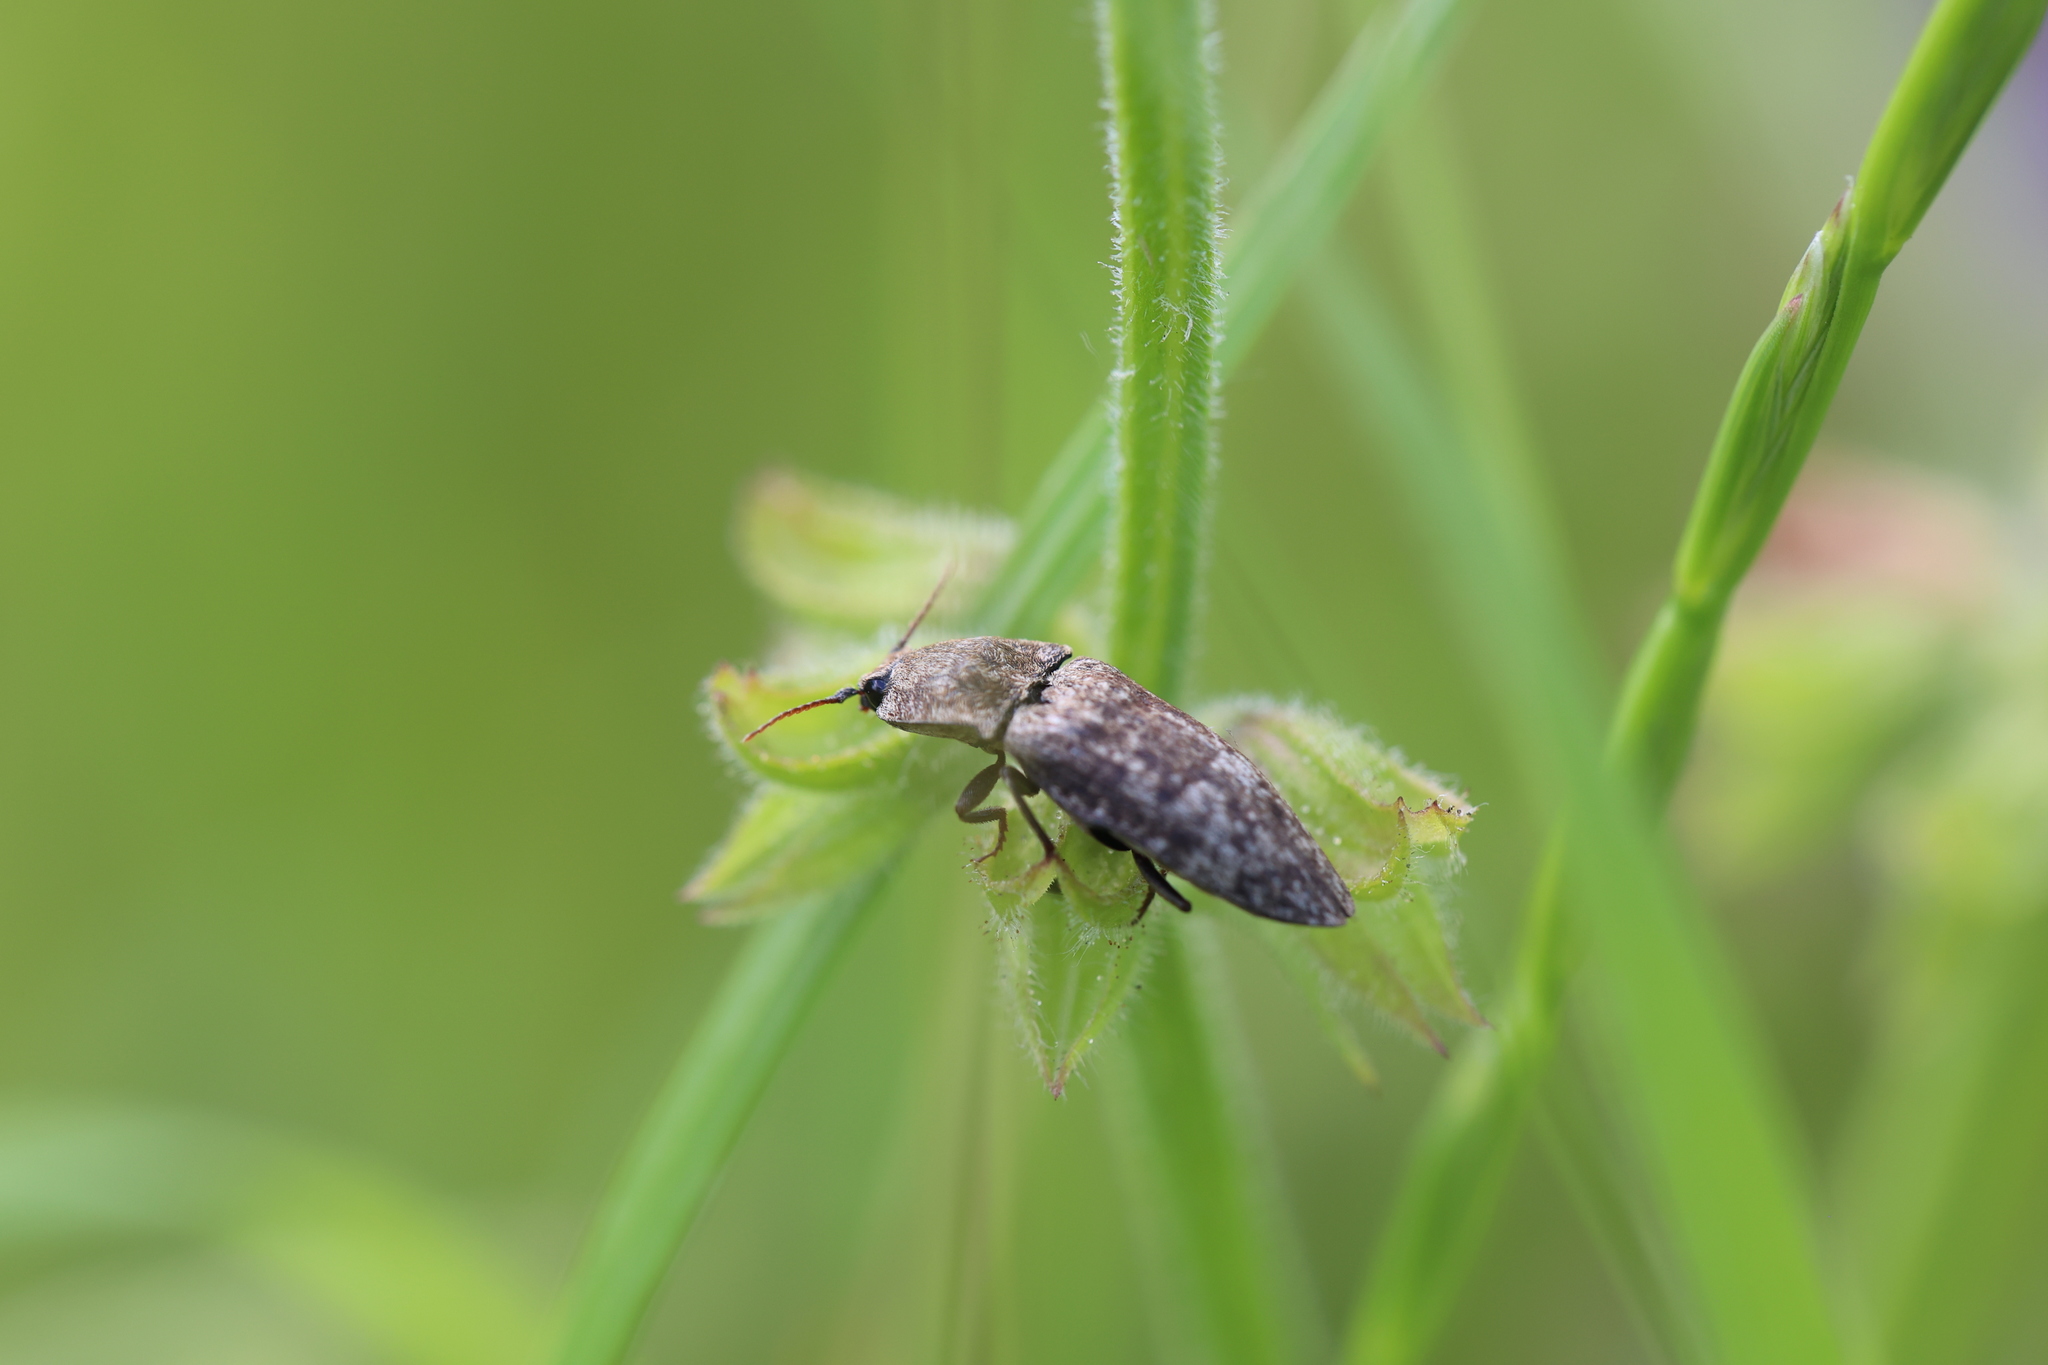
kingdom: Animalia
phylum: Arthropoda
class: Insecta
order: Coleoptera
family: Elateridae
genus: Agrypnus
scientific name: Agrypnus murinus
